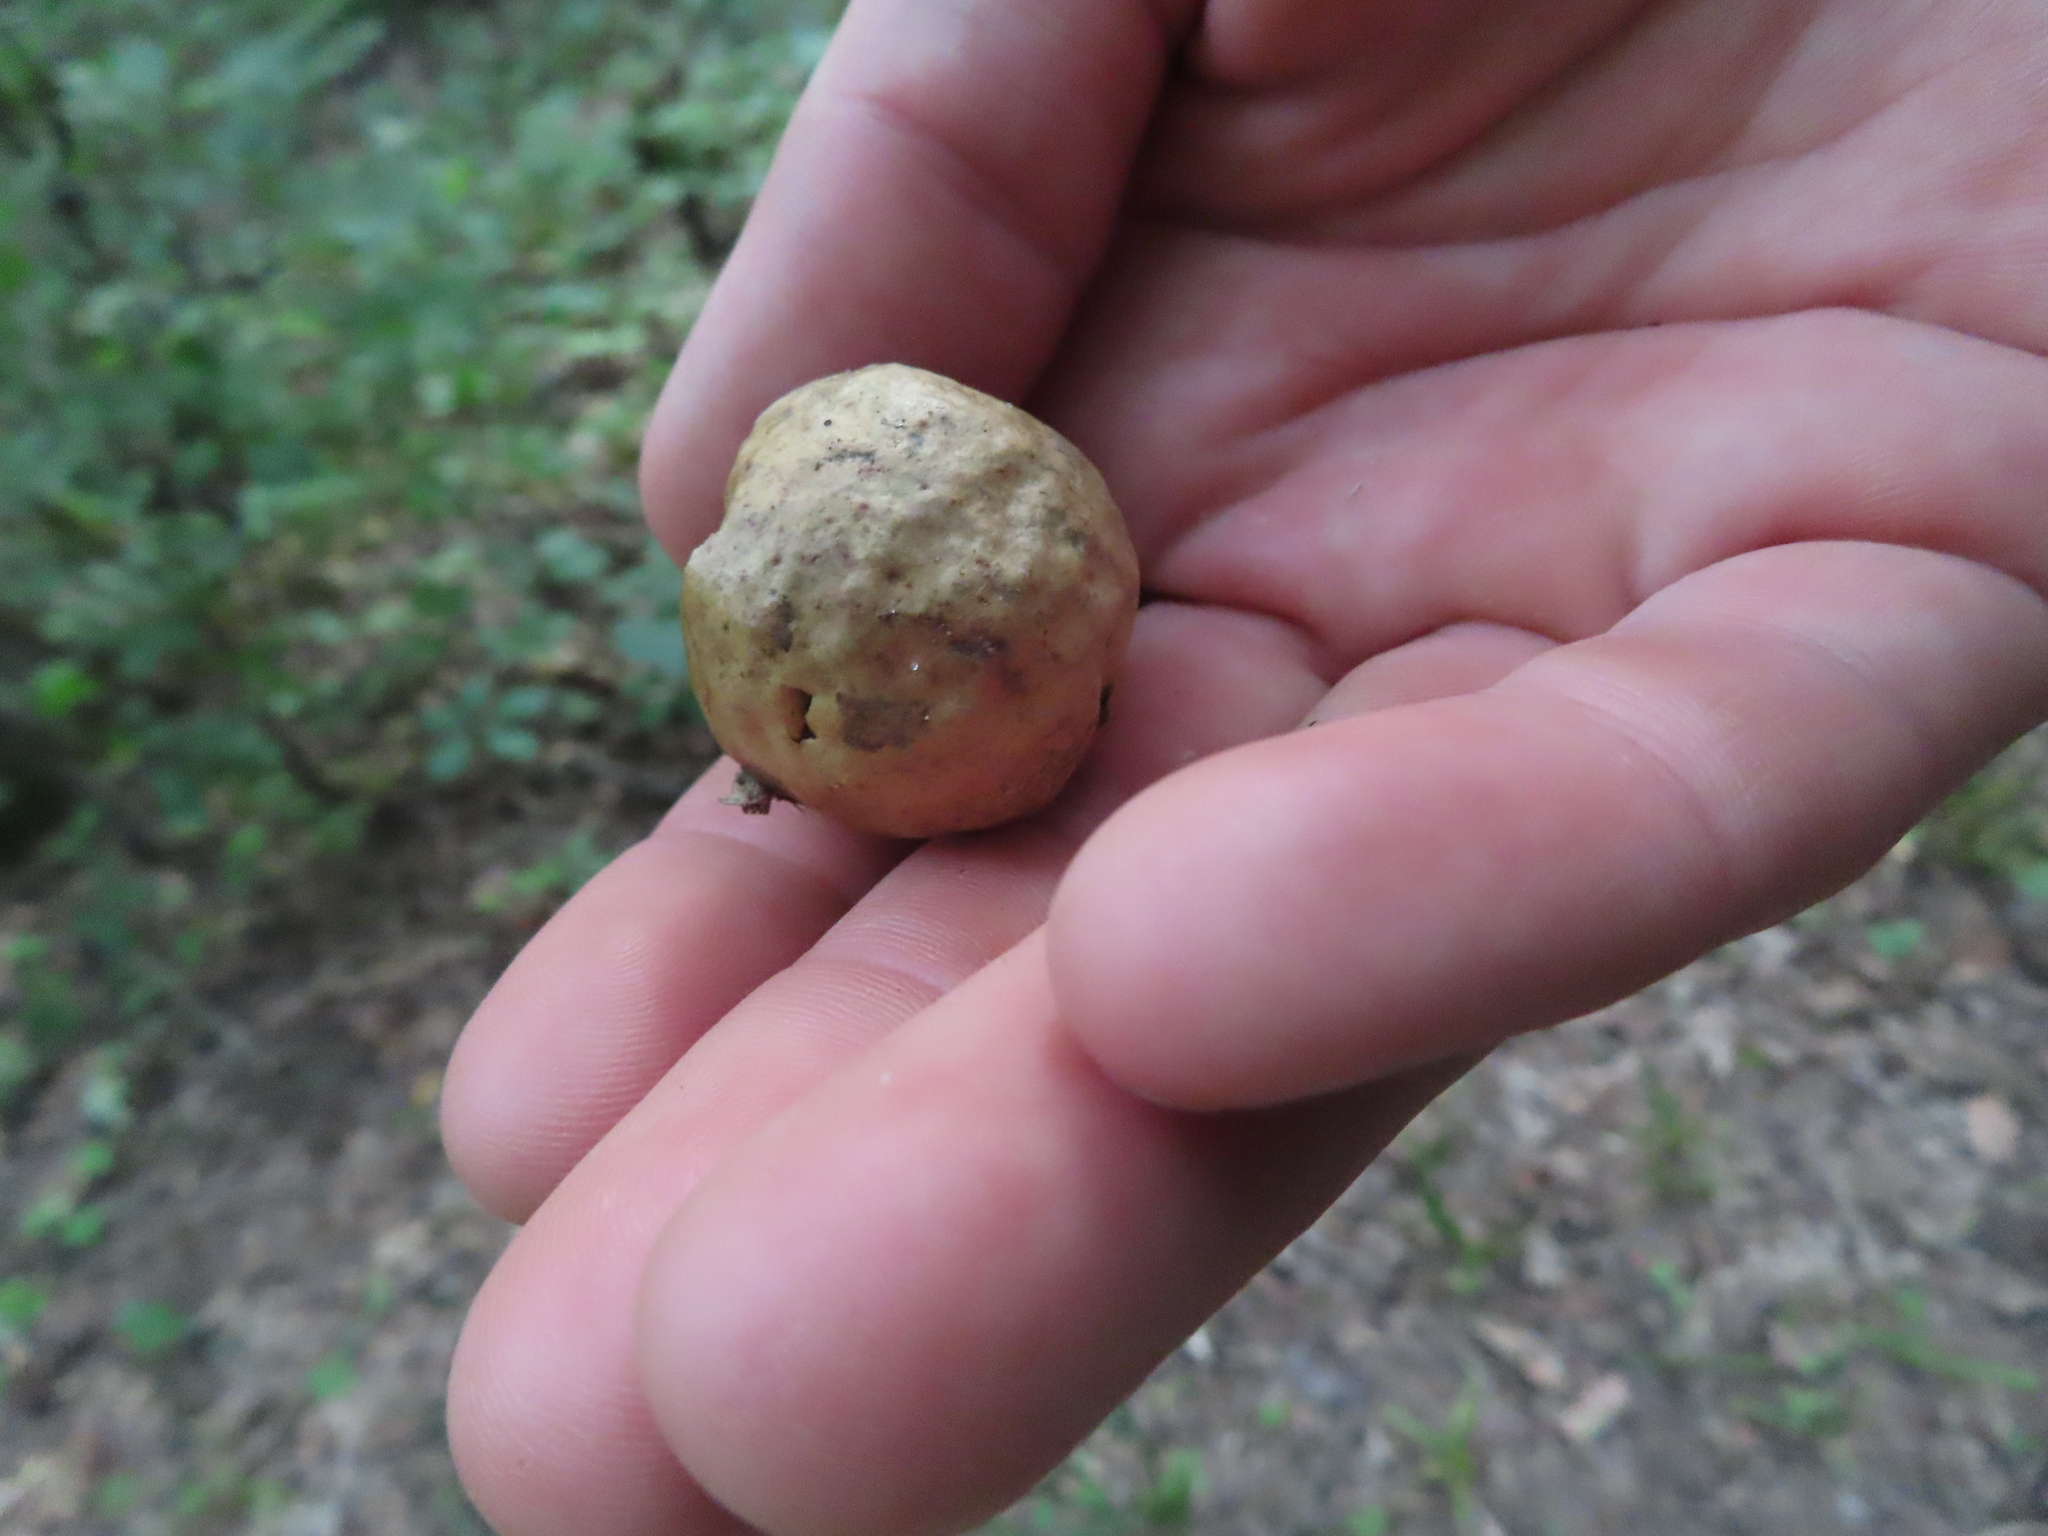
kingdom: Animalia
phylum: Arthropoda
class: Insecta
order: Hymenoptera
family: Cynipidae
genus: Amphibolips
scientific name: Amphibolips
